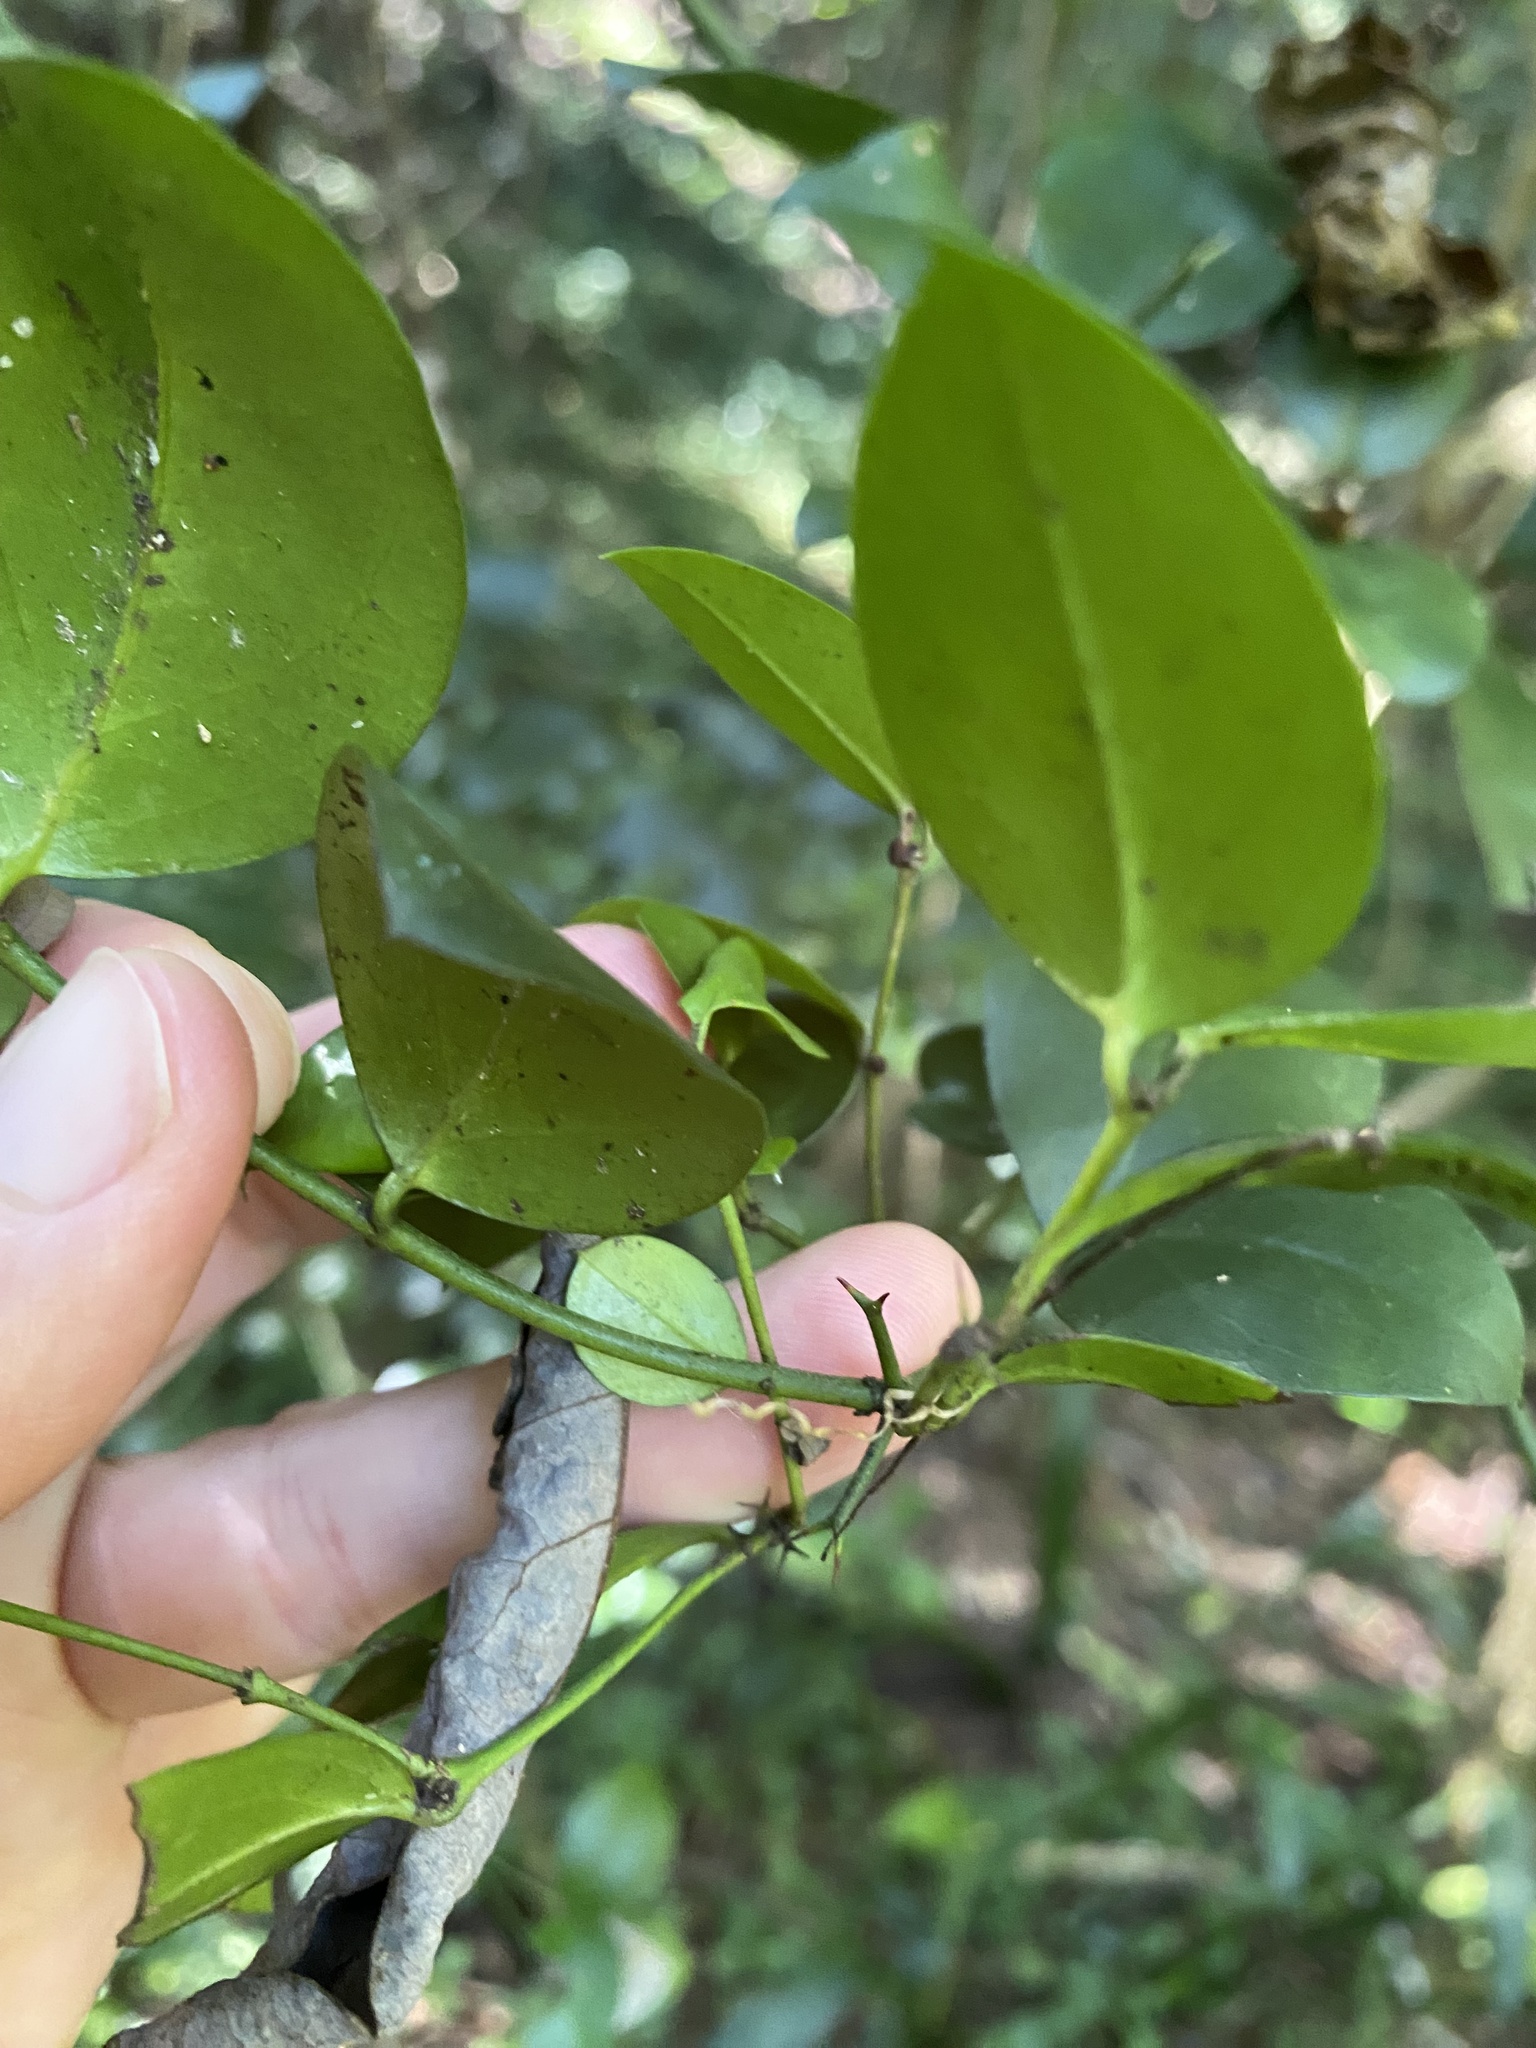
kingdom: Plantae
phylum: Tracheophyta
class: Magnoliopsida
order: Gentianales
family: Apocynaceae
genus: Carissa
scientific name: Carissa bispinosa
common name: Forest num-num
